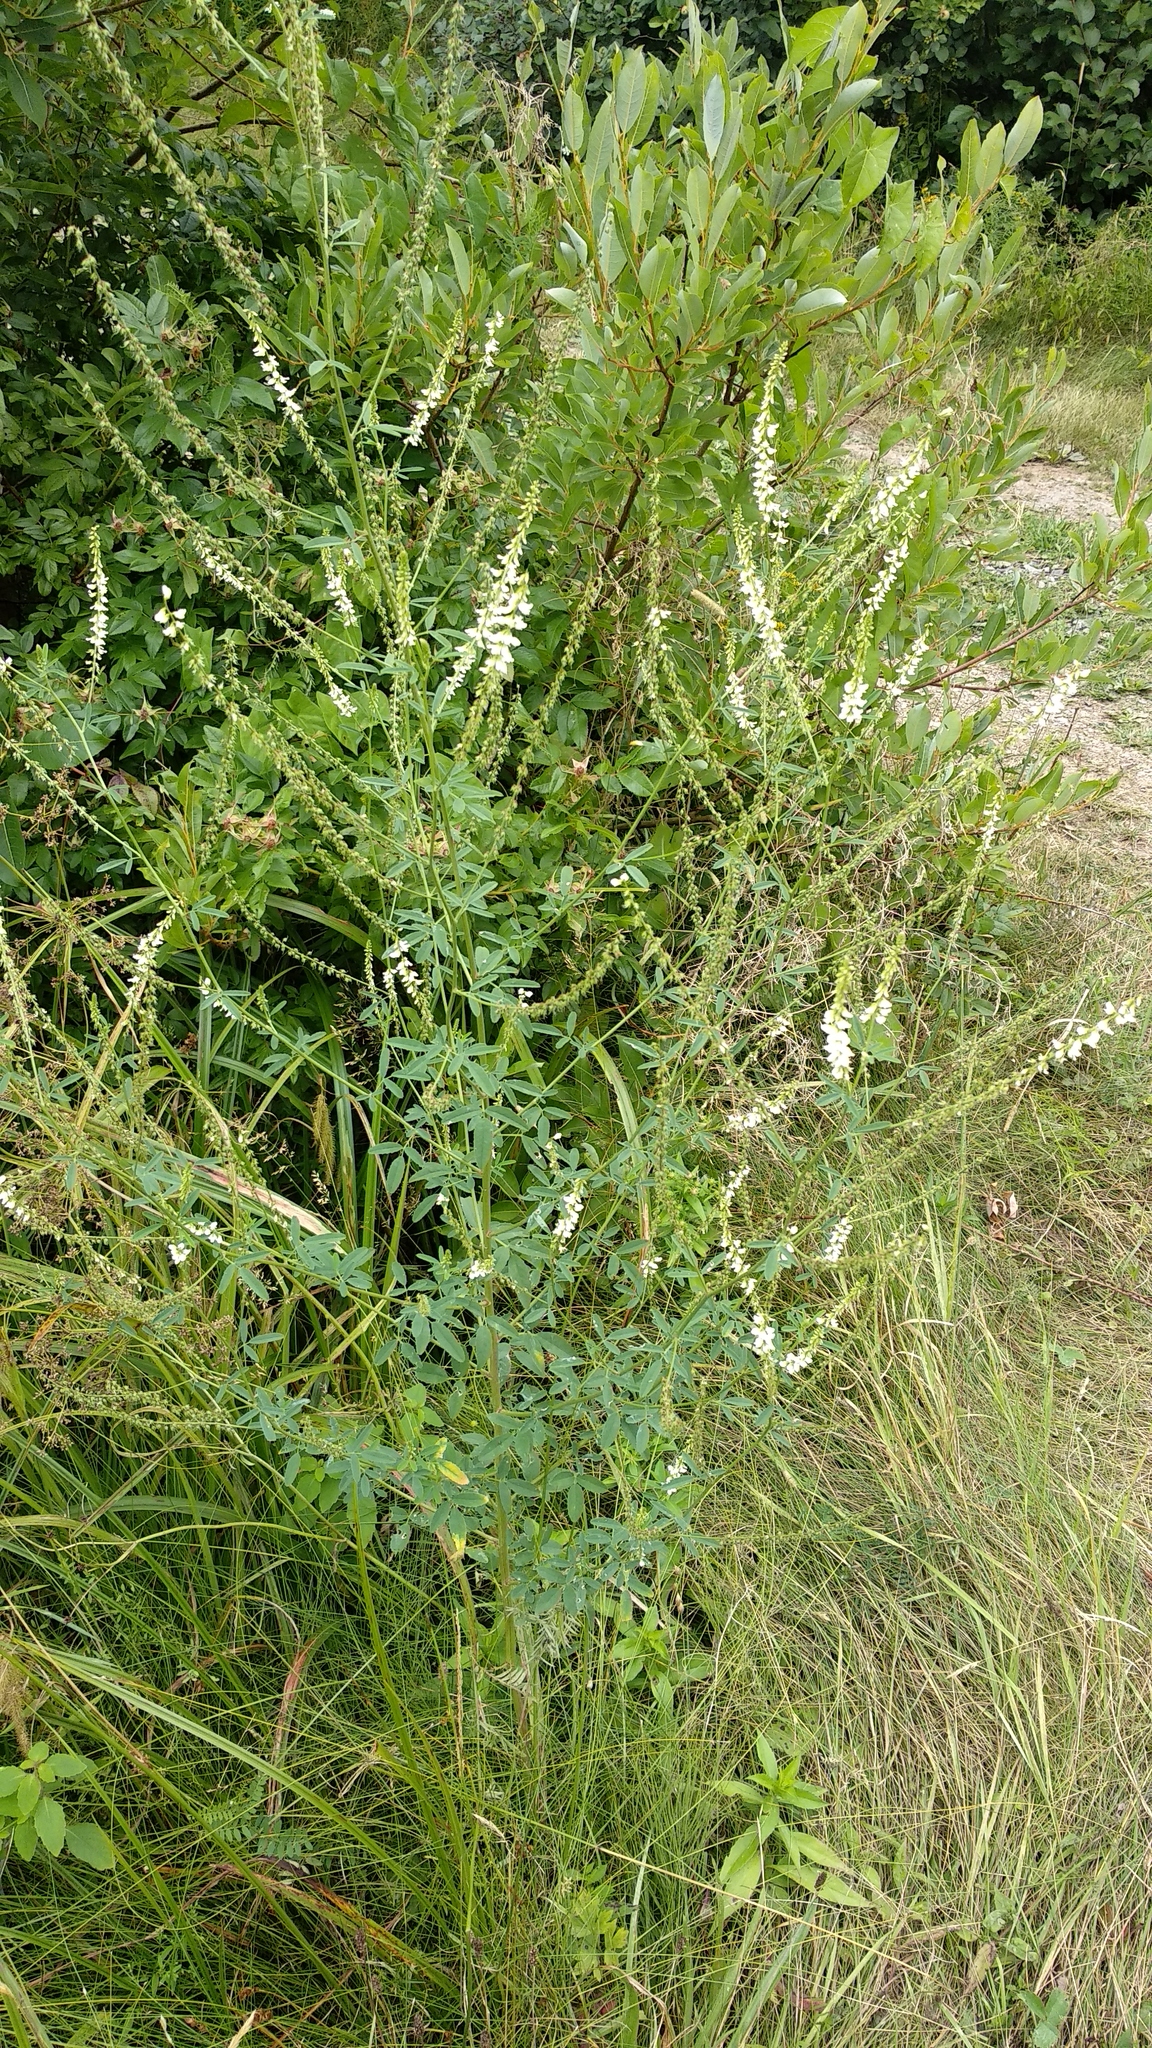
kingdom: Plantae
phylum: Tracheophyta
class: Magnoliopsida
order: Fabales
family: Fabaceae
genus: Melilotus
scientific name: Melilotus albus
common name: White melilot
